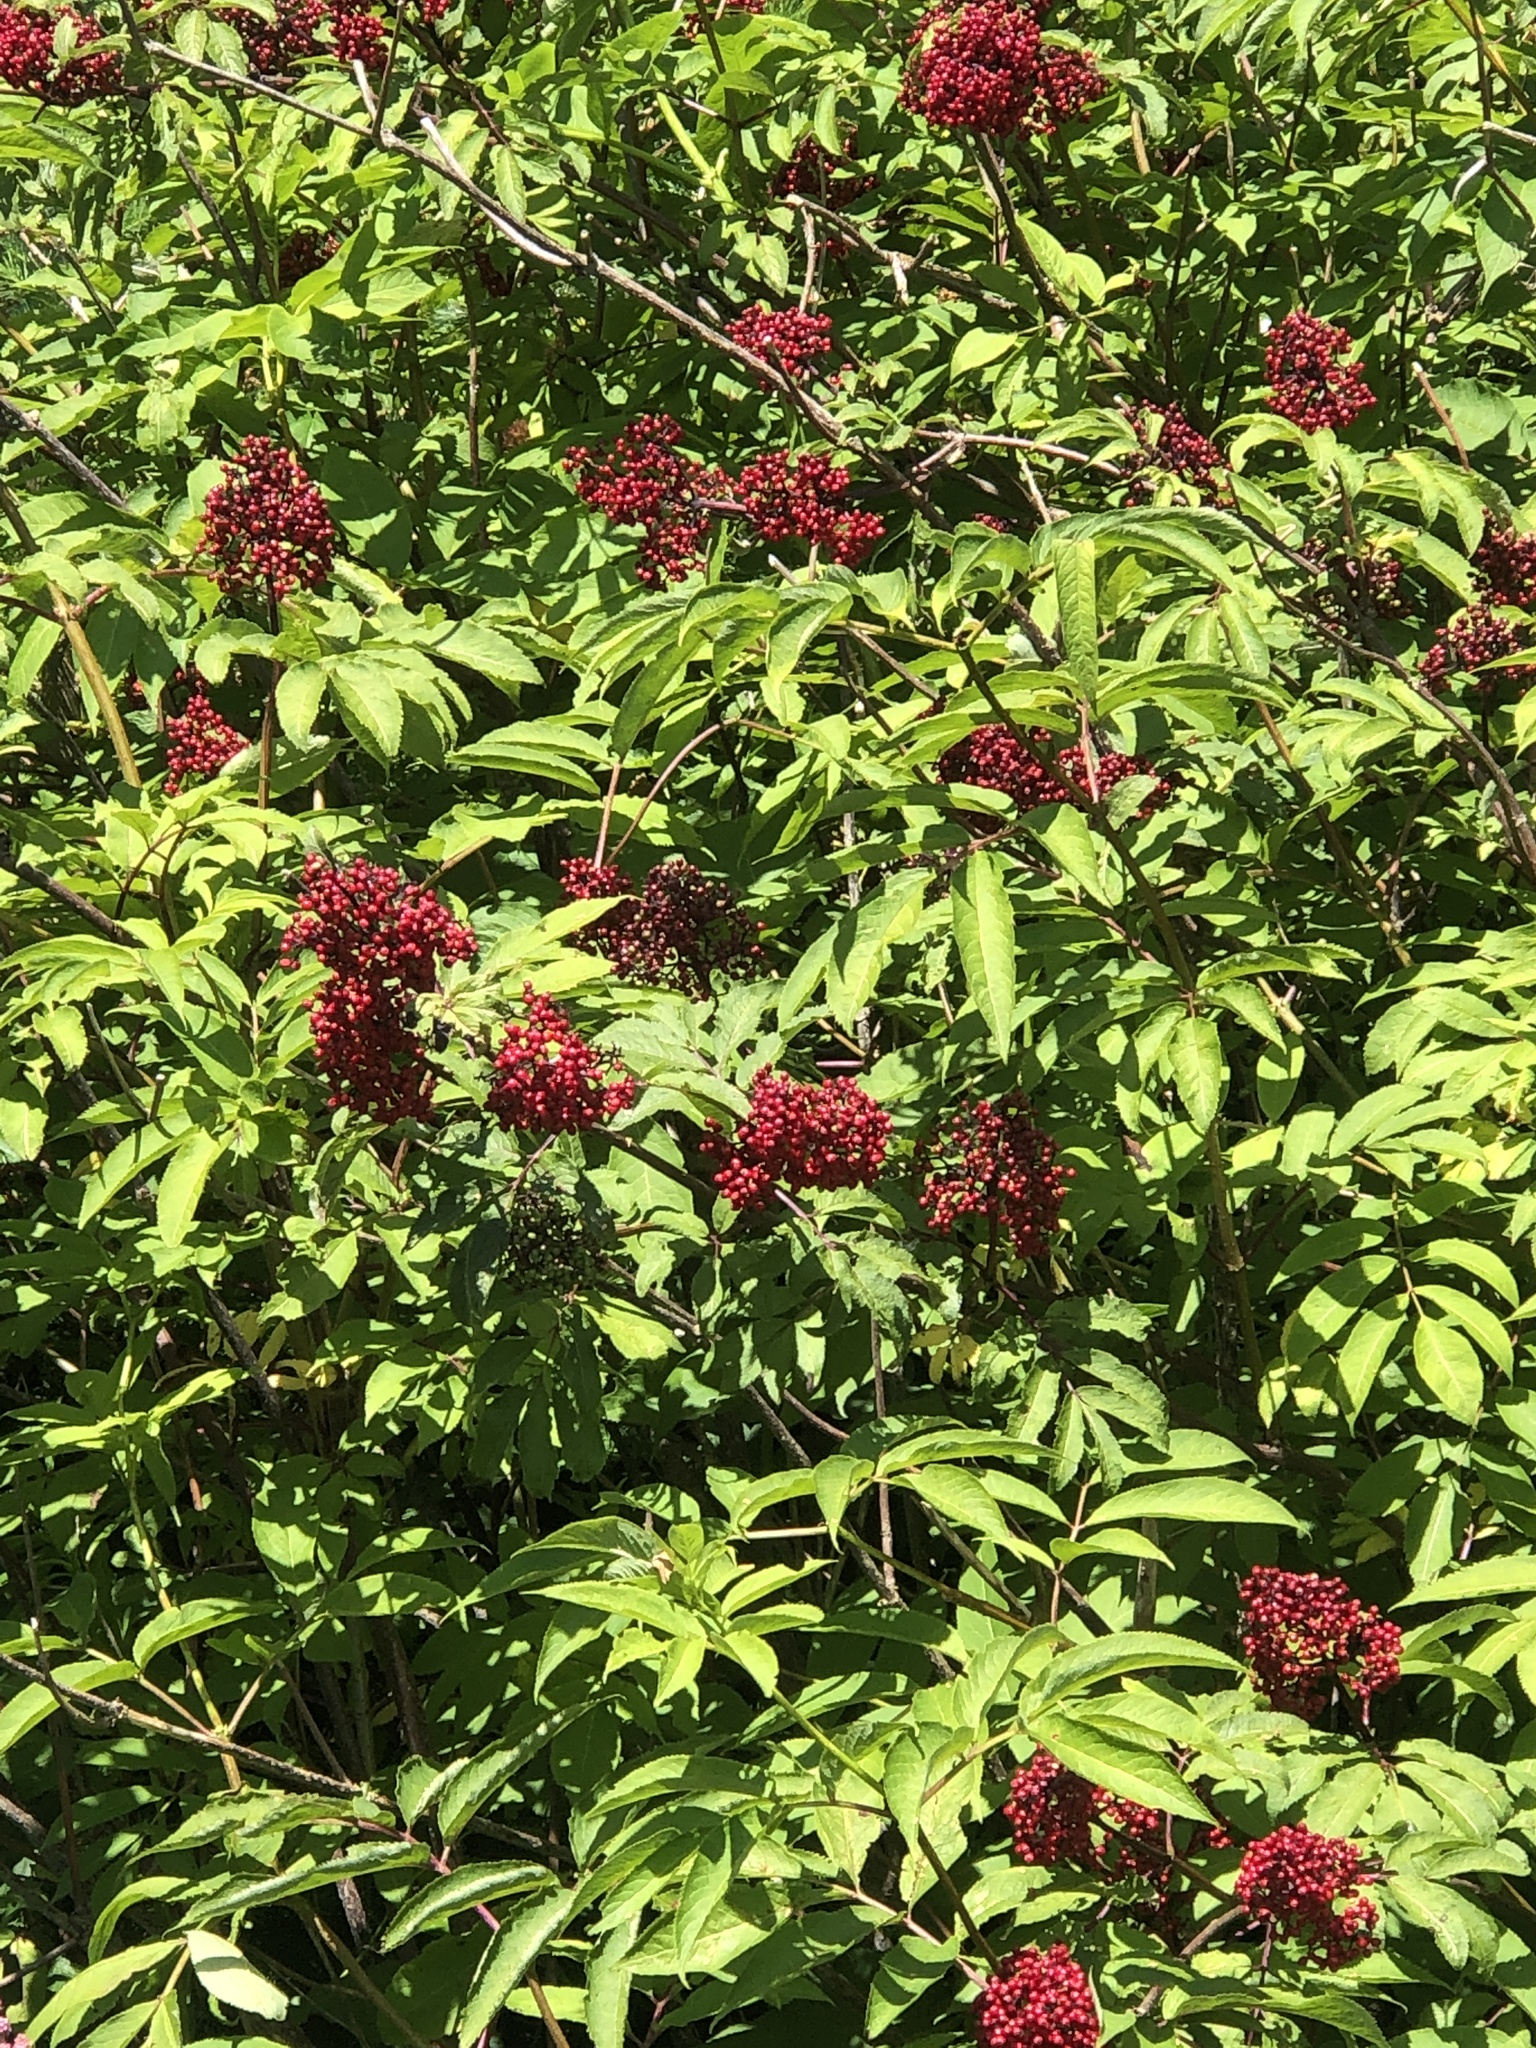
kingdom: Plantae
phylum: Tracheophyta
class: Magnoliopsida
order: Dipsacales
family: Viburnaceae
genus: Sambucus
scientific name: Sambucus racemosa
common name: Red-berried elder
